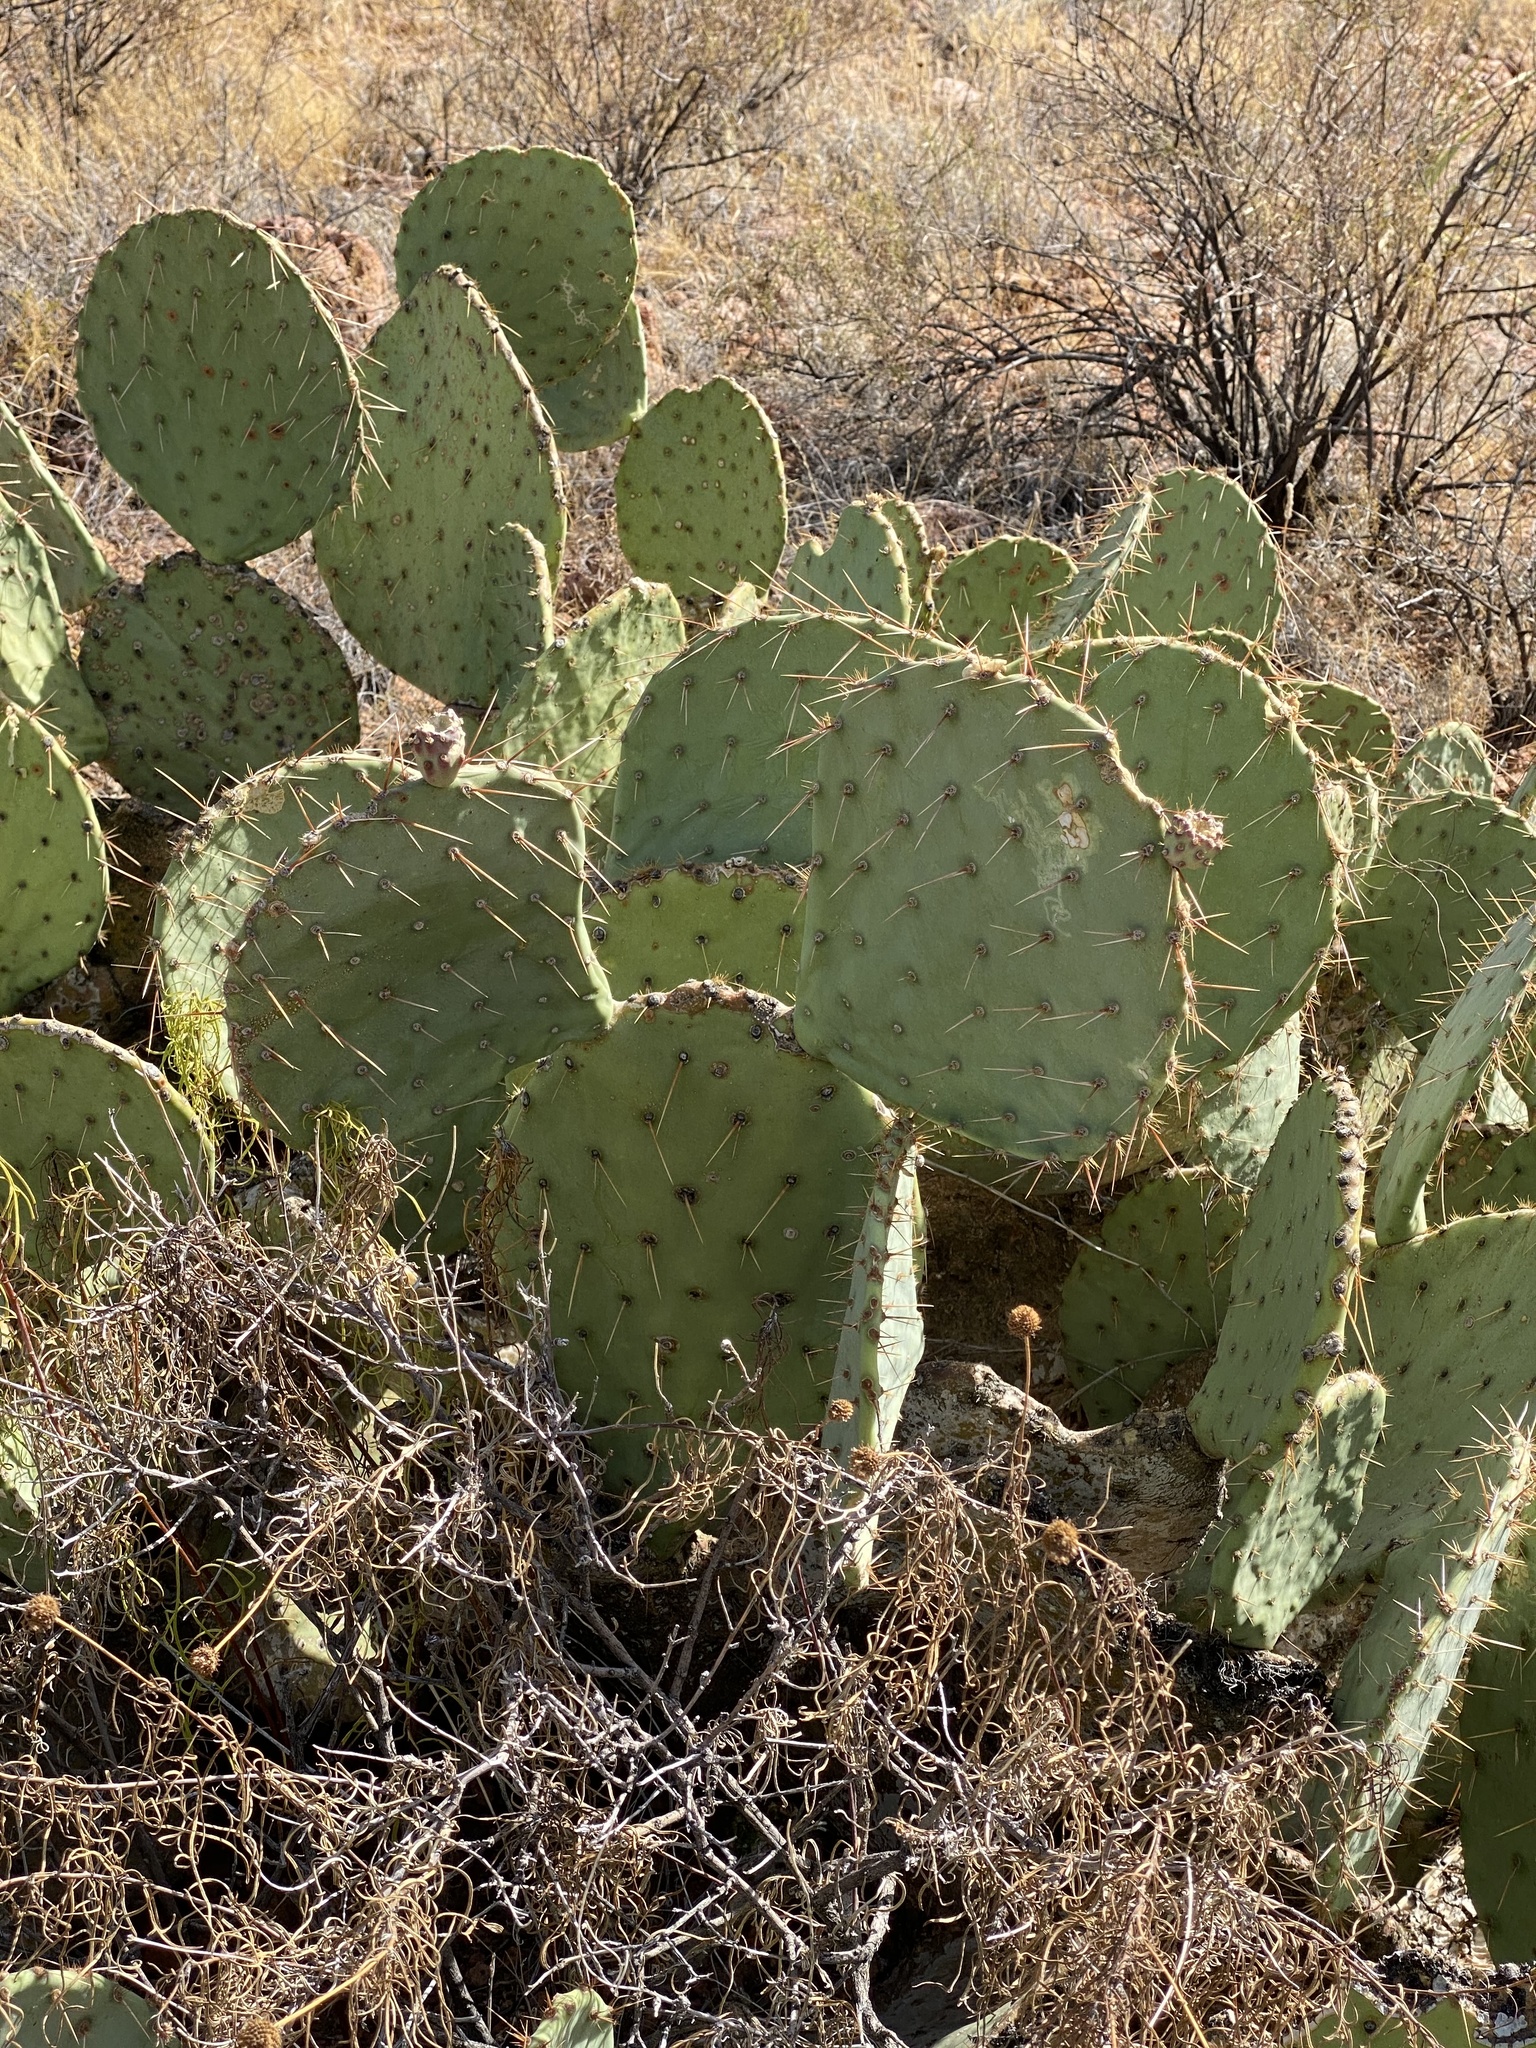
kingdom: Plantae
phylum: Tracheophyta
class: Magnoliopsida
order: Caryophyllales
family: Cactaceae
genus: Opuntia
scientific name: Opuntia engelmannii
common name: Cactus-apple
